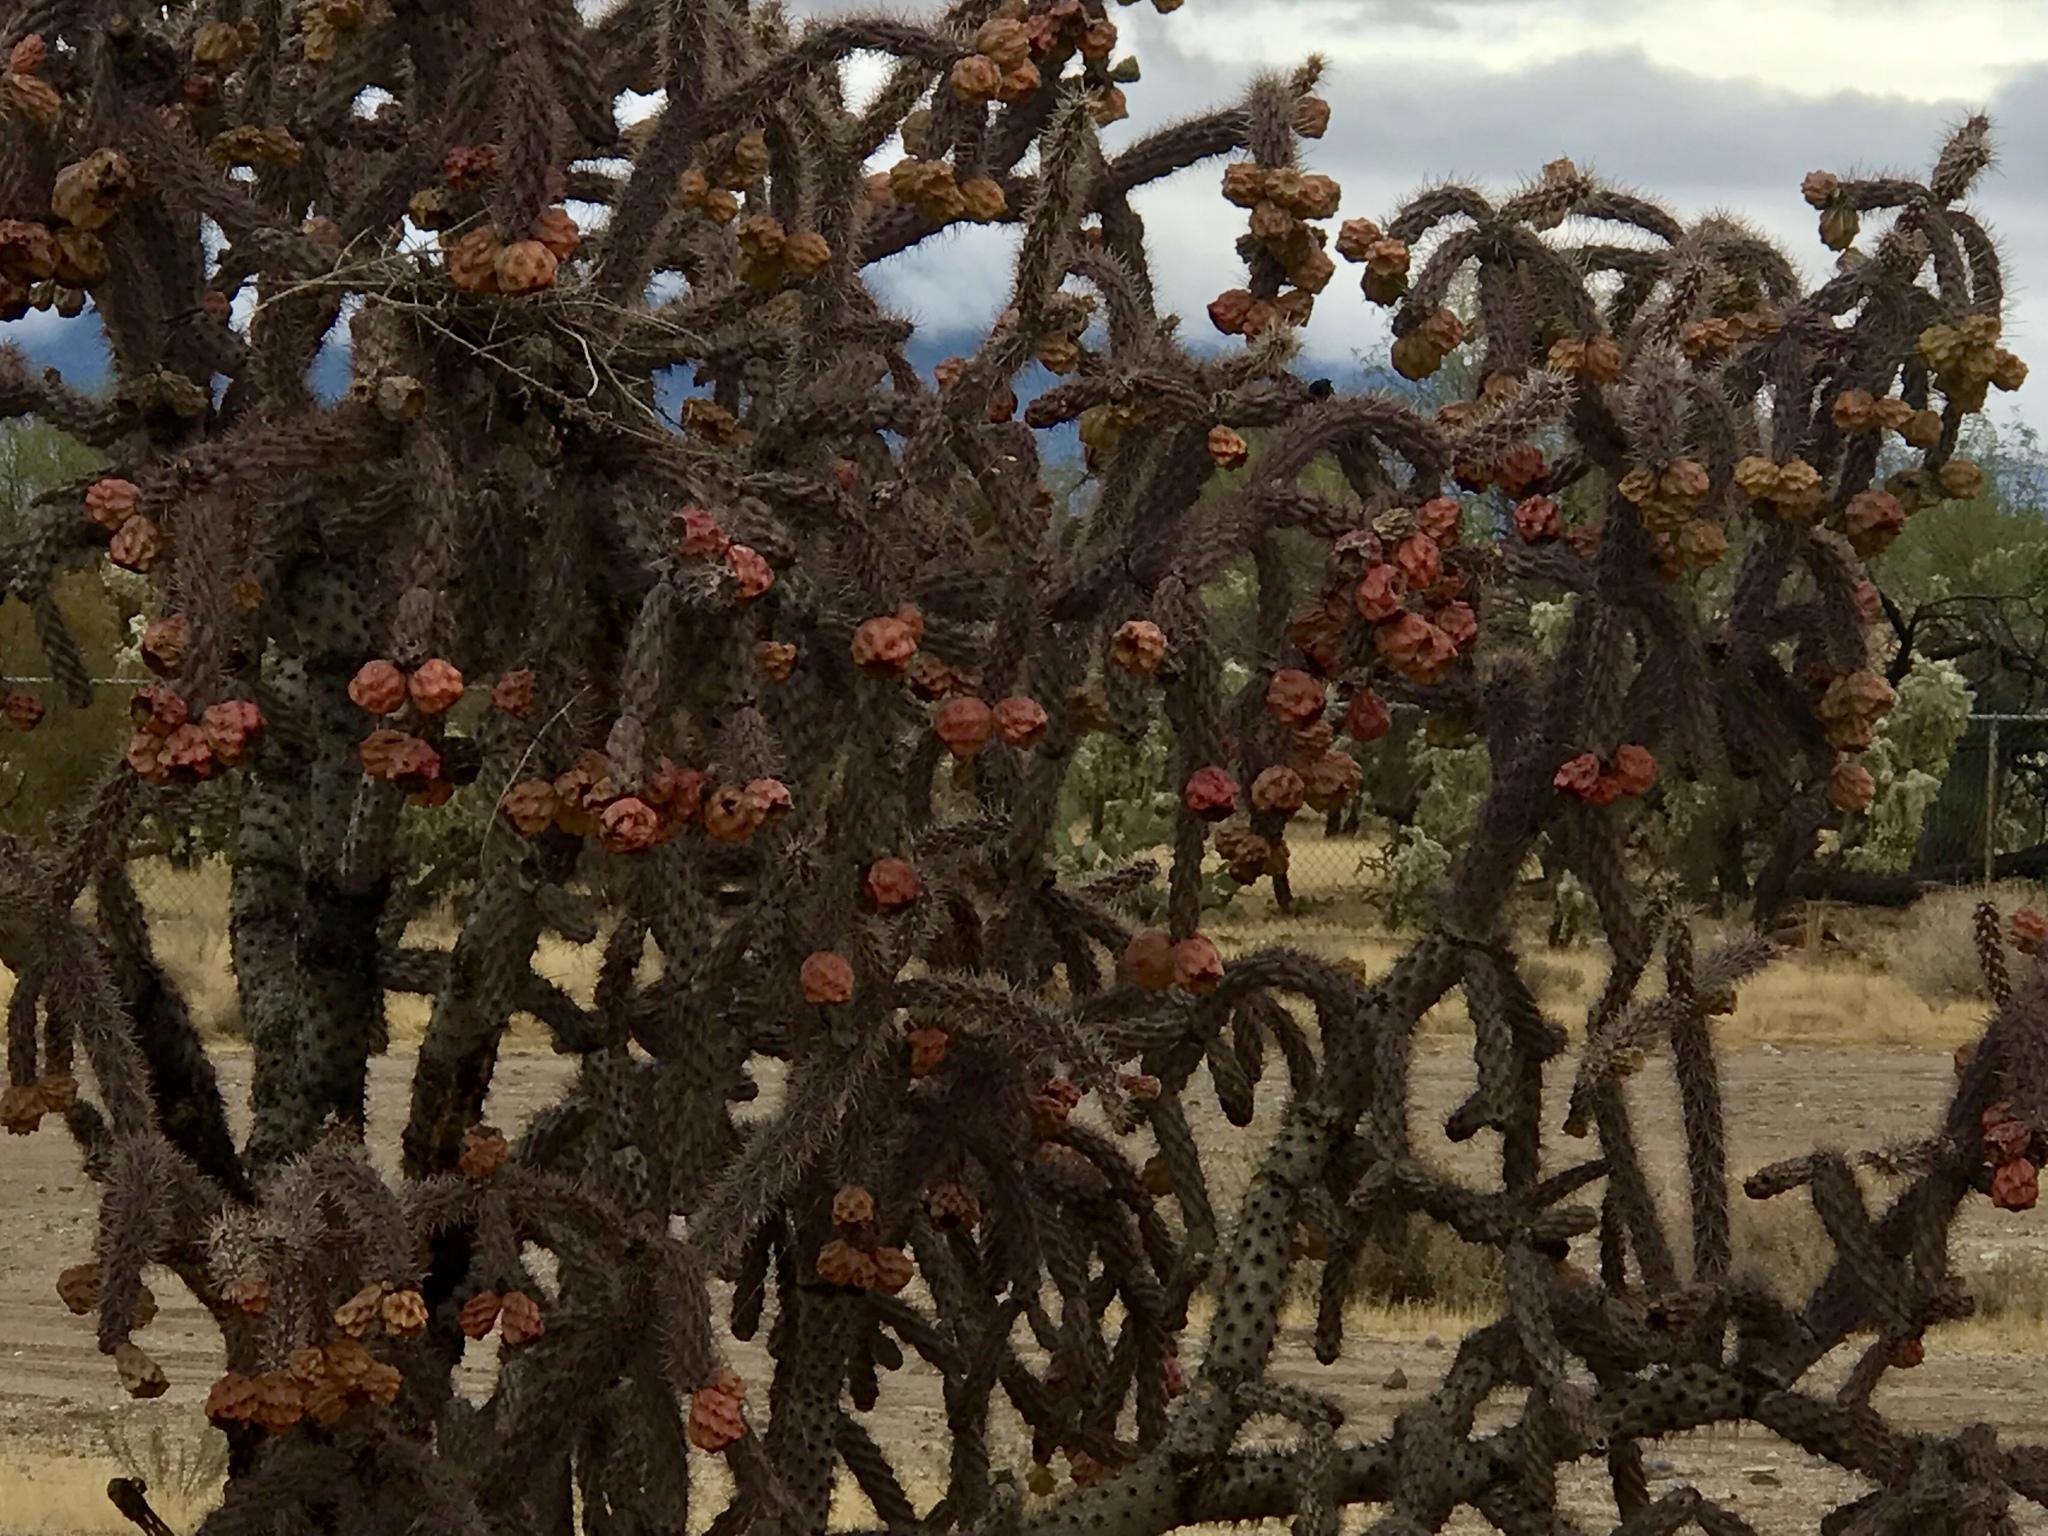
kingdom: Plantae
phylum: Tracheophyta
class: Magnoliopsida
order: Caryophyllales
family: Cactaceae
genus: Cylindropuntia
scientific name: Cylindropuntia thurberi
